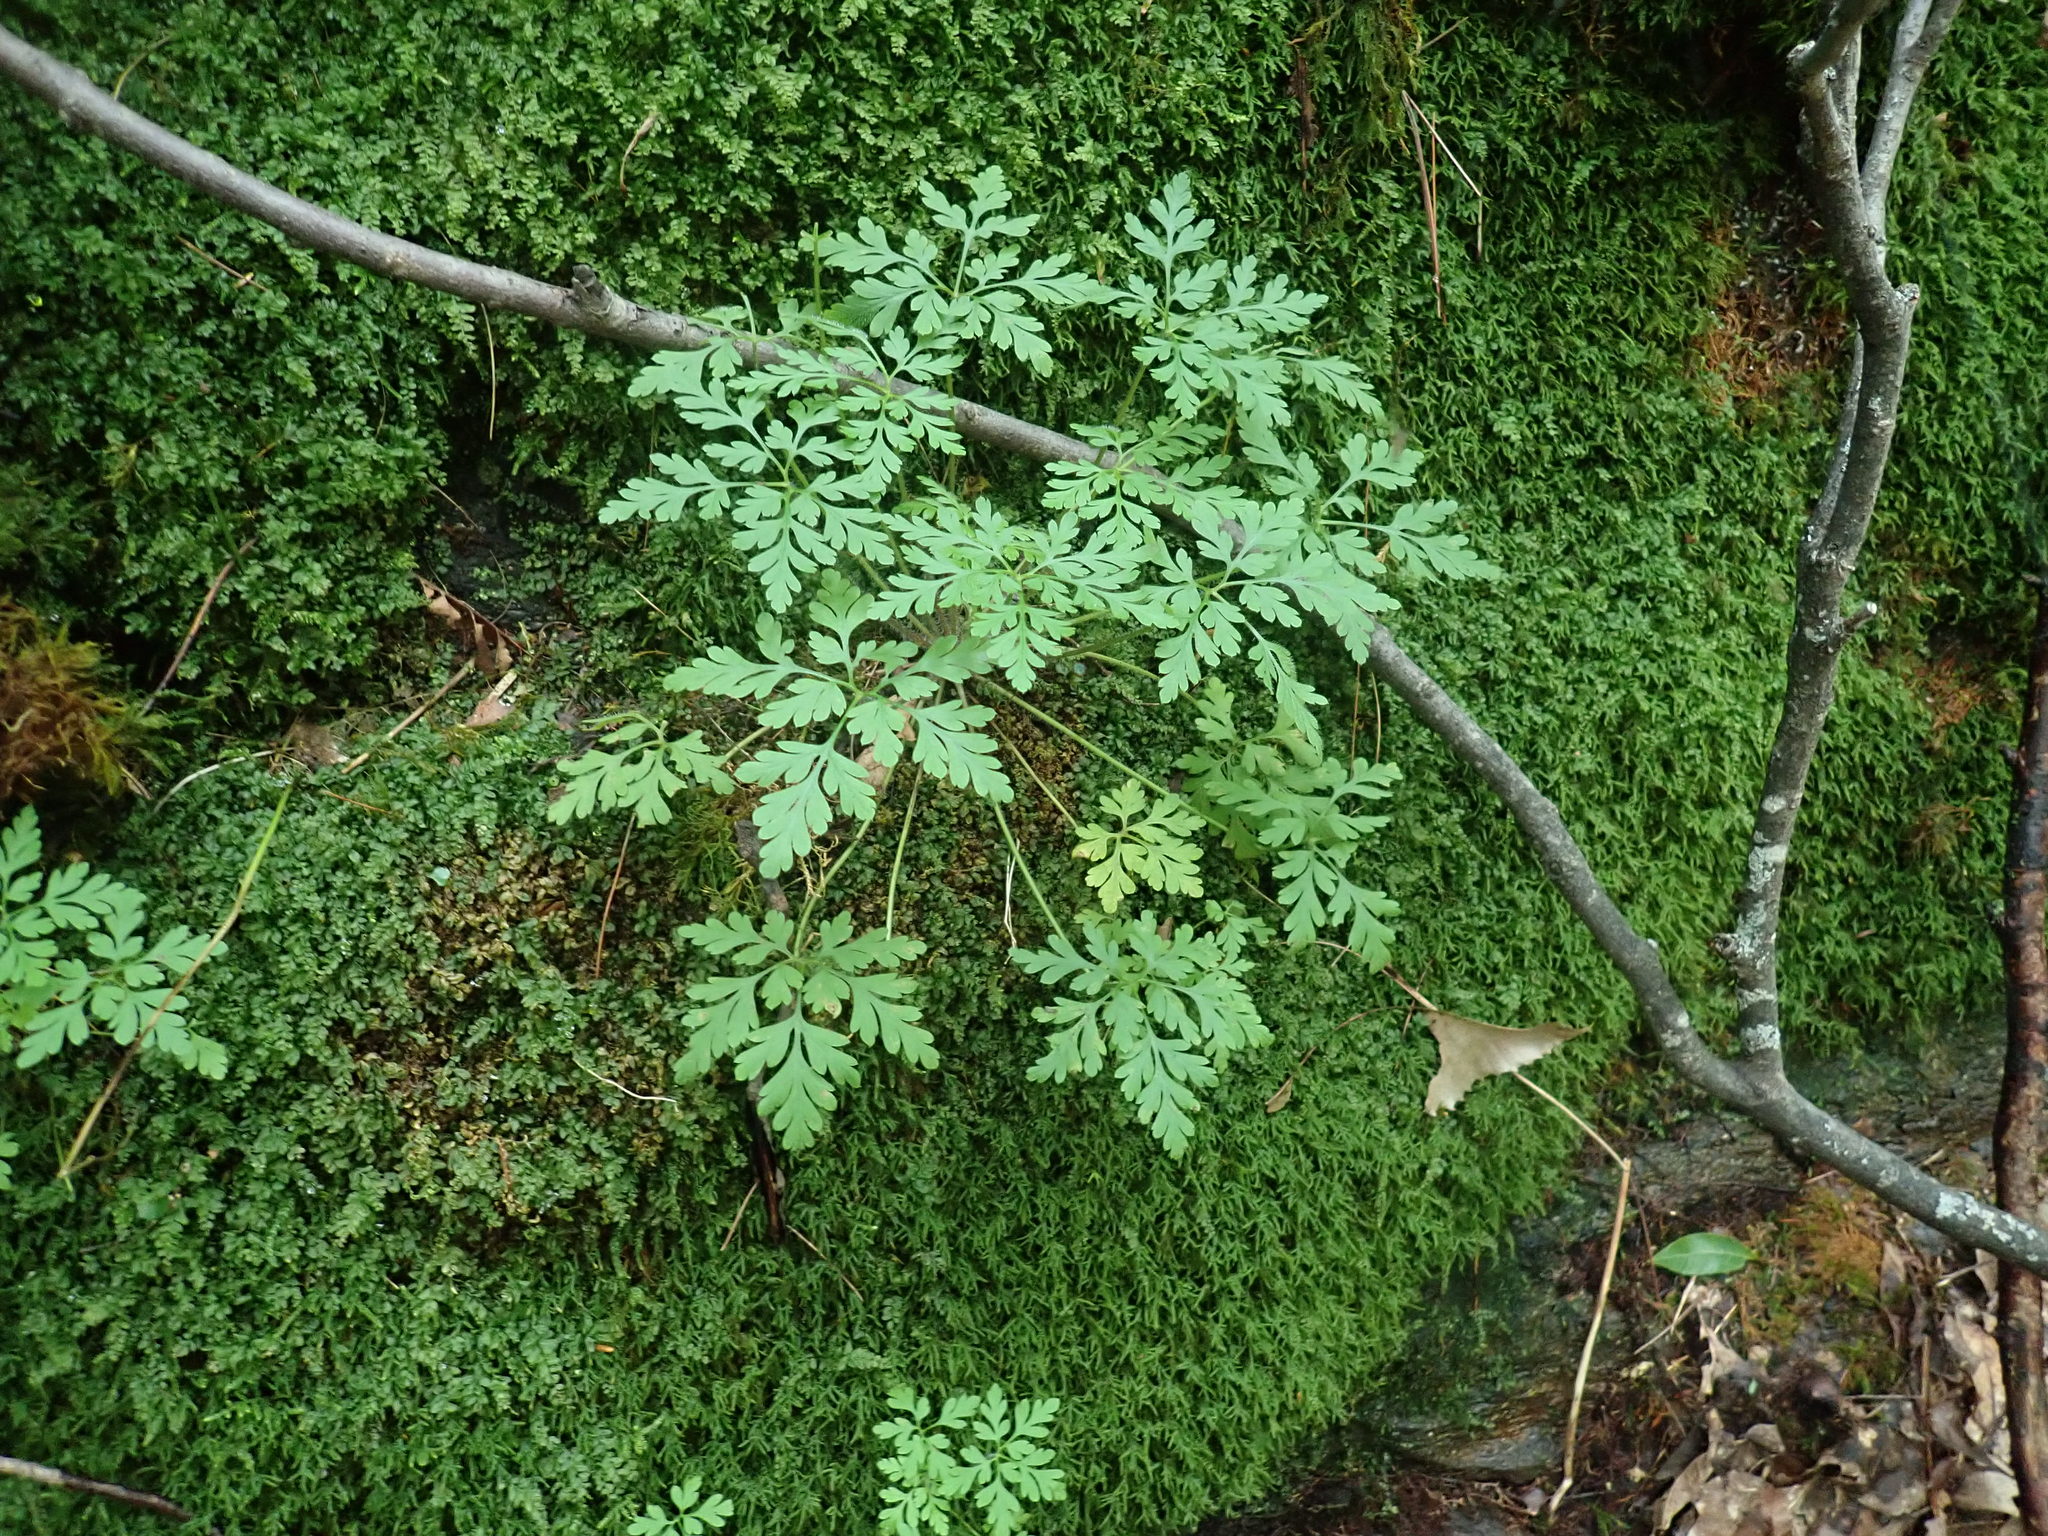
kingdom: Plantae
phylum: Tracheophyta
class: Magnoliopsida
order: Geraniales
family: Geraniaceae
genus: Geranium
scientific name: Geranium robertianum
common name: Herb-robert
